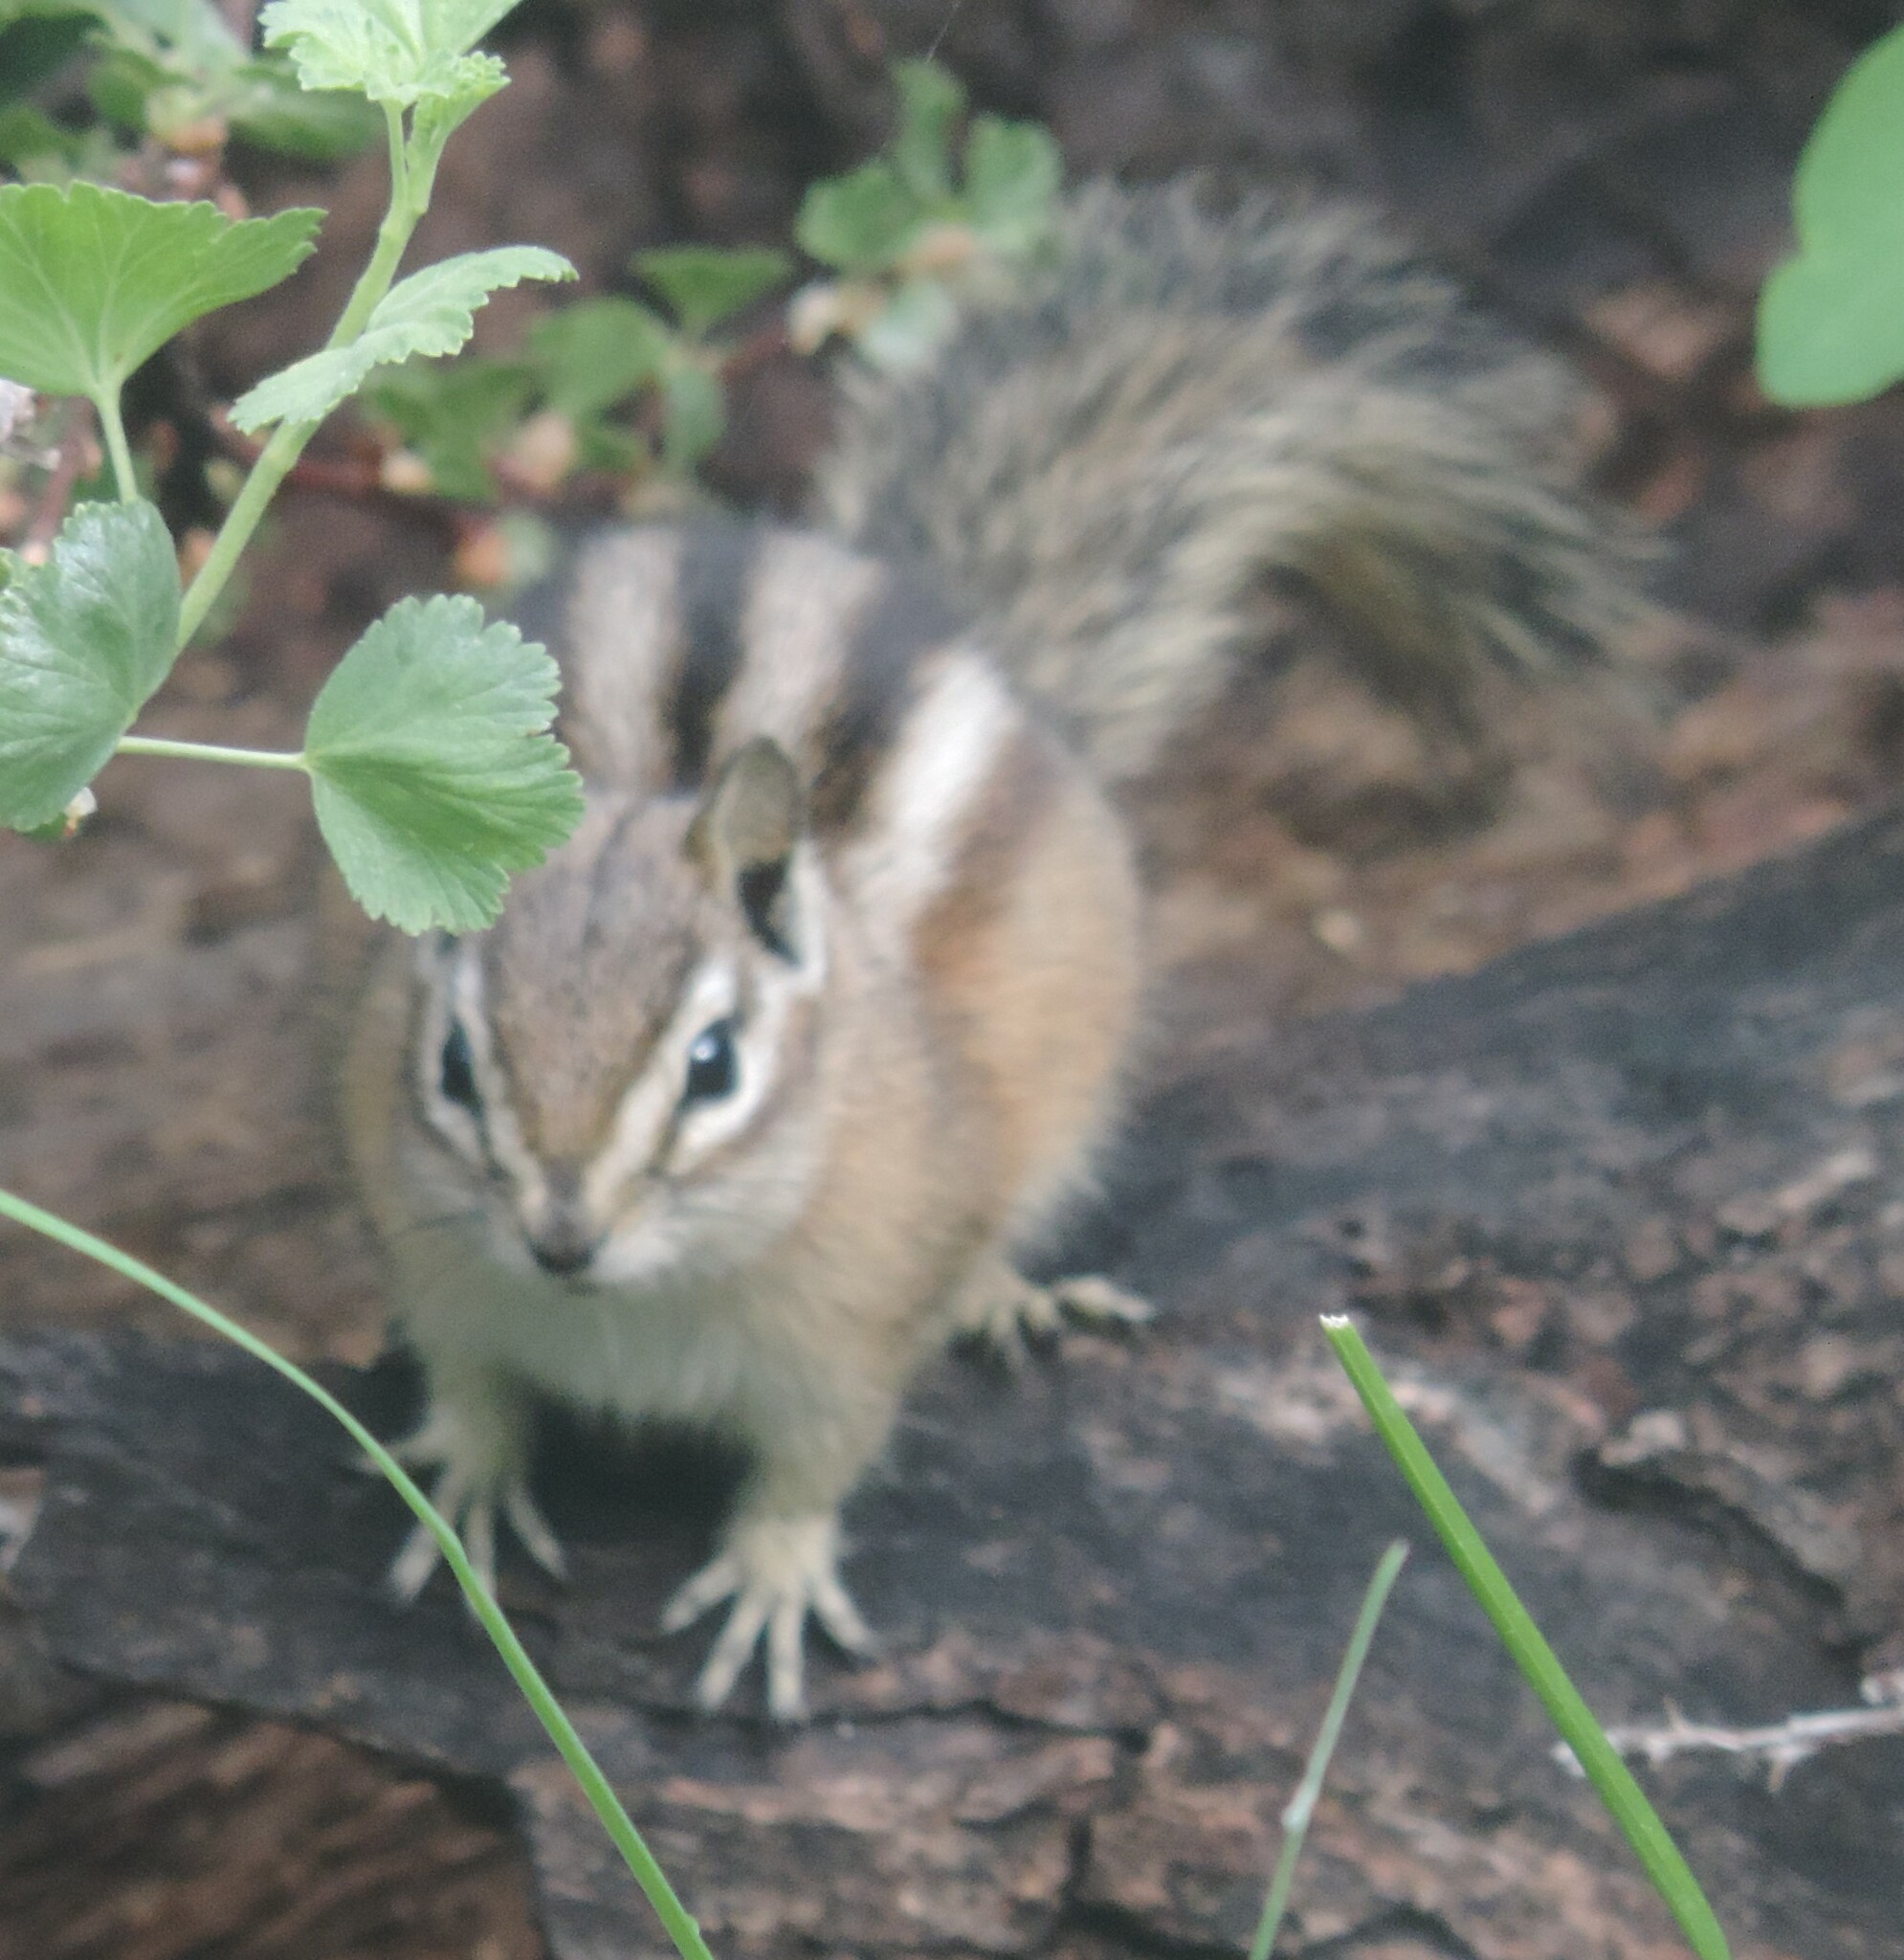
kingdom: Animalia
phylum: Chordata
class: Mammalia
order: Rodentia
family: Sciuridae
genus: Tamias
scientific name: Tamias amoenus
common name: Yellow-pine chipmunk
